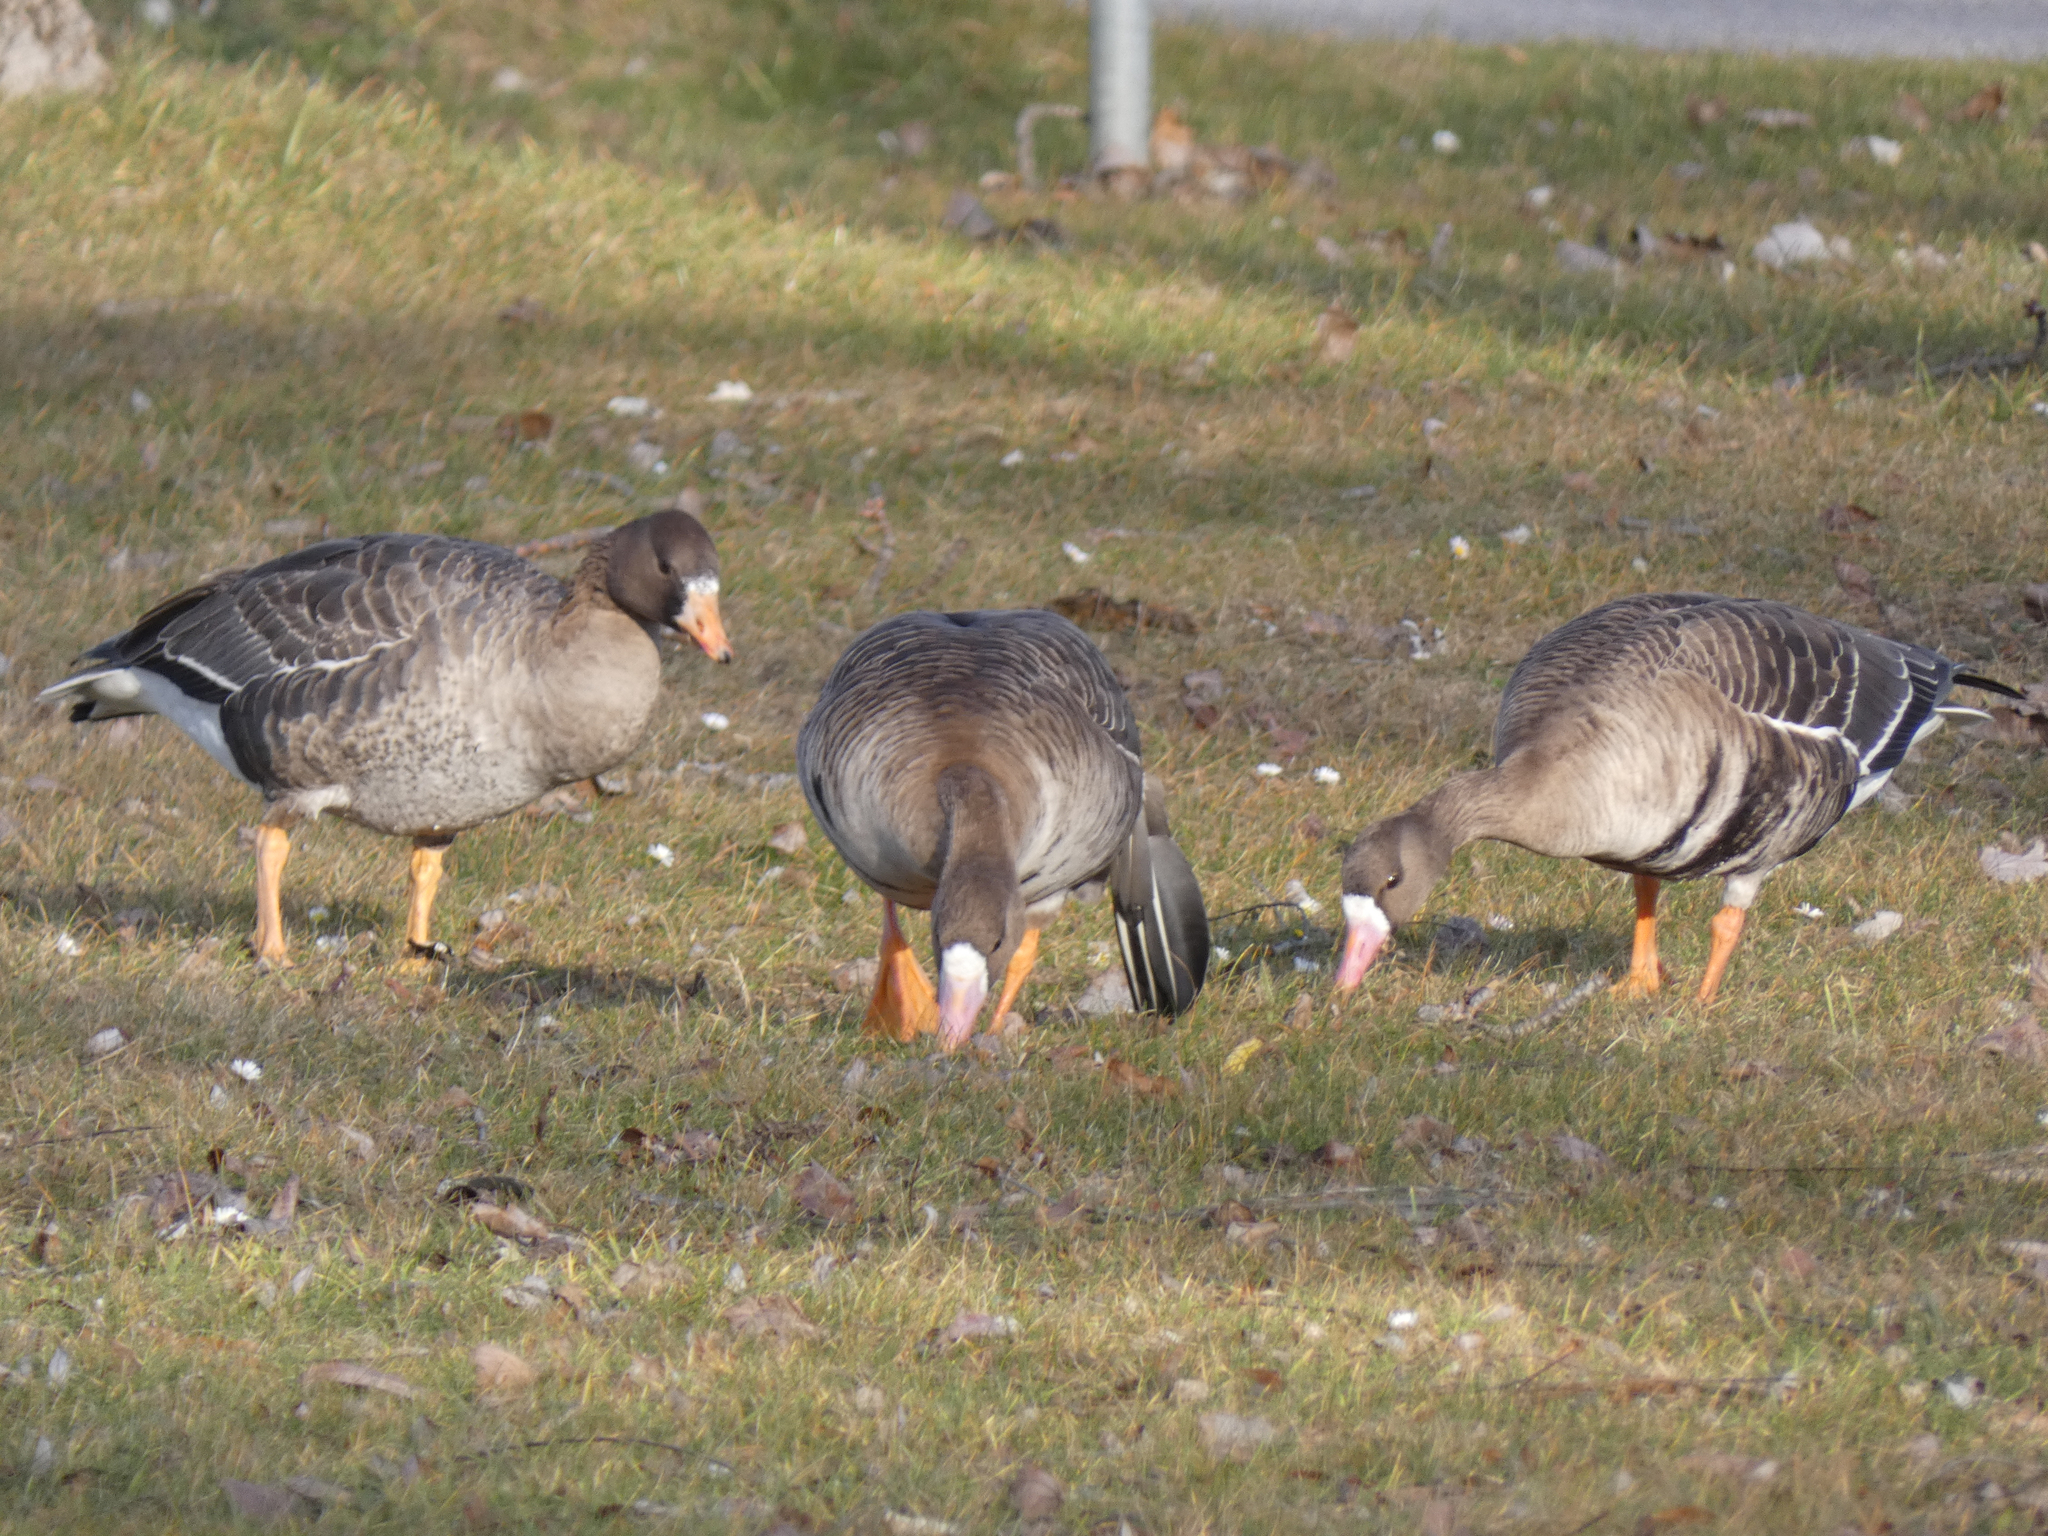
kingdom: Animalia
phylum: Chordata
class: Aves
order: Anseriformes
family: Anatidae
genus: Anser
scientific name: Anser albifrons
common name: Greater white-fronted goose
